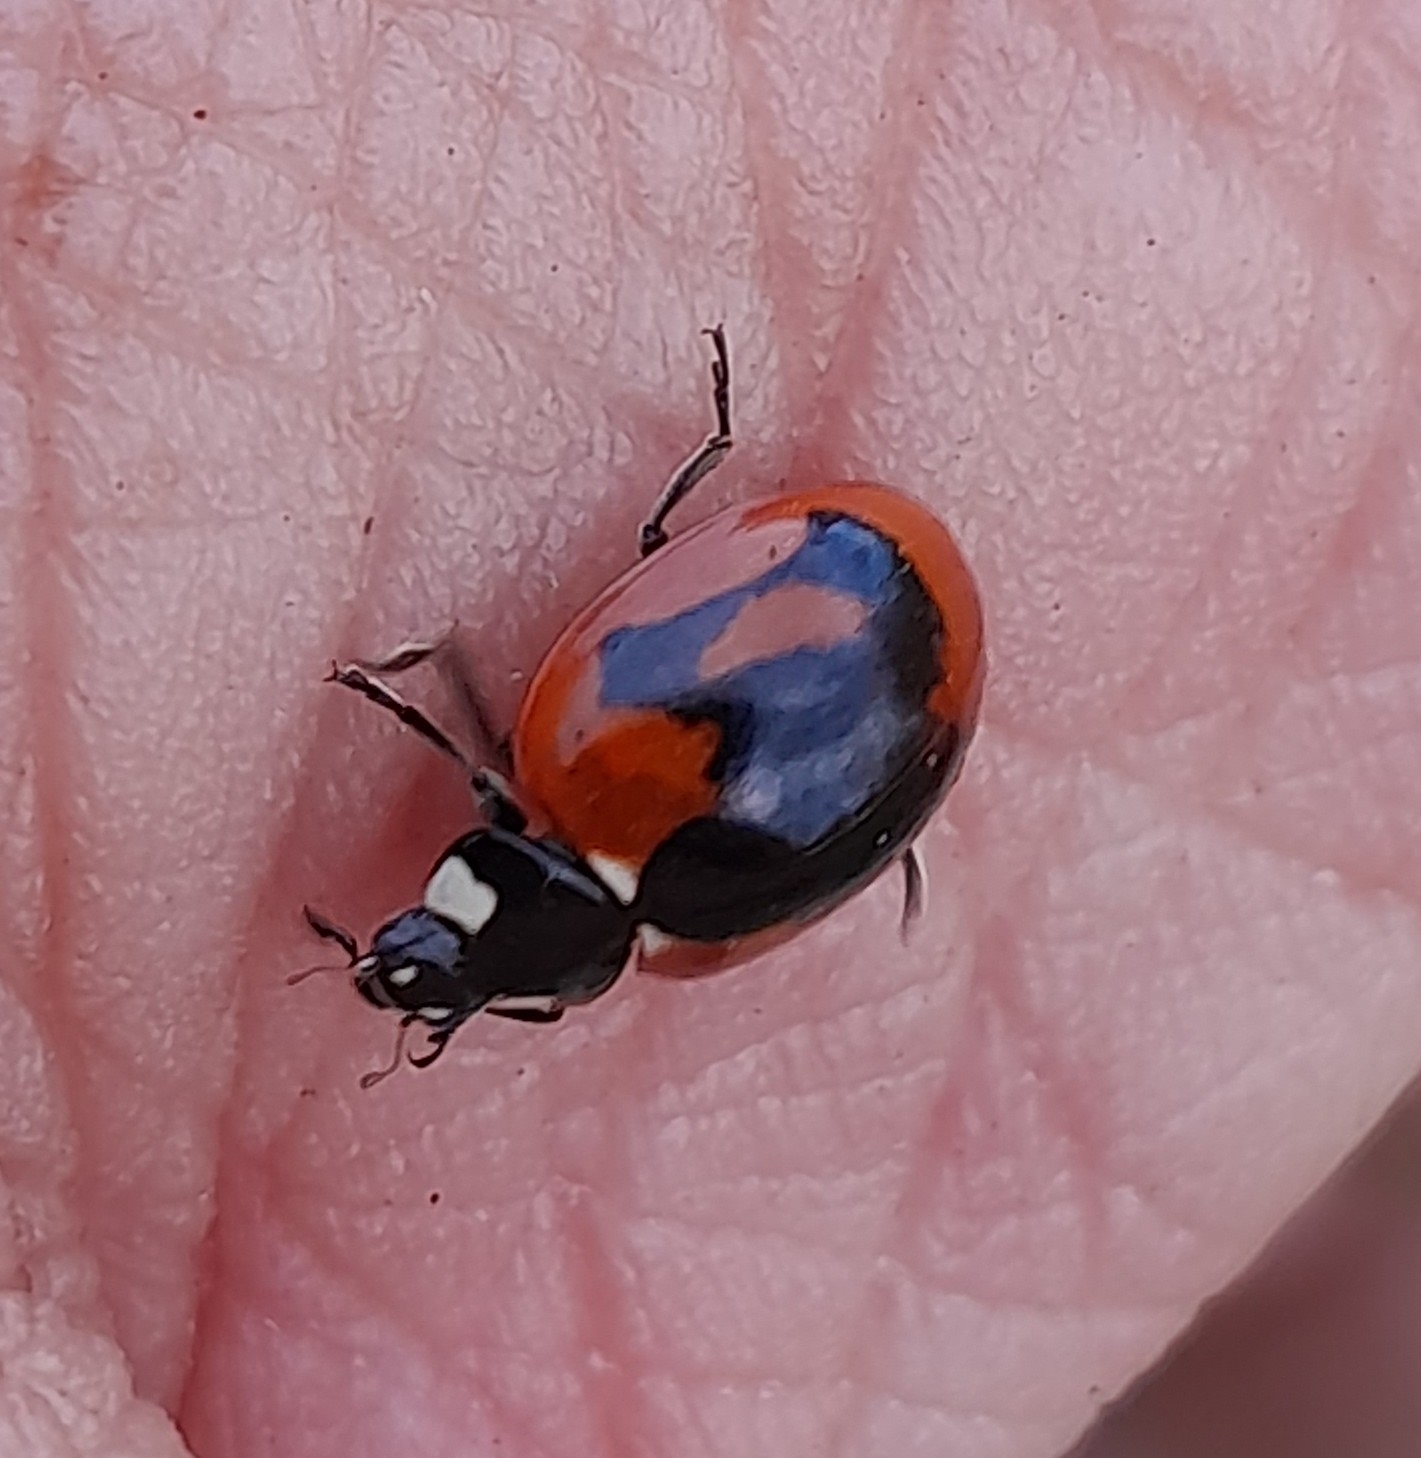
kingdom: Animalia
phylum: Arthropoda
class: Insecta
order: Coleoptera
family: Coccinellidae
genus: Coccinella
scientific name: Coccinella septempunctata
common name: Sevenspotted lady beetle
